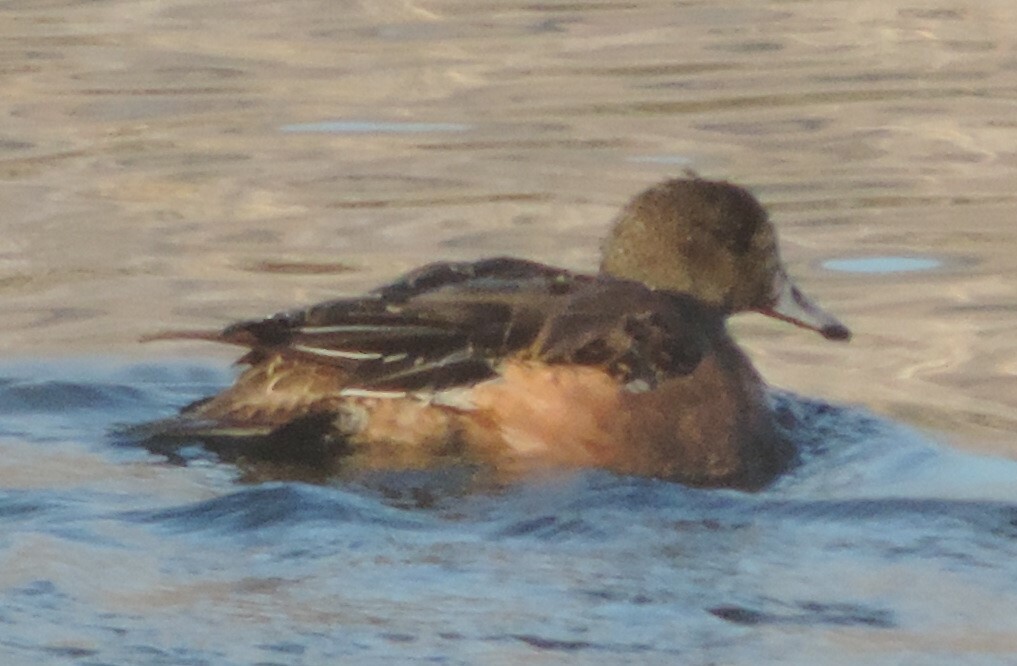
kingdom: Animalia
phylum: Chordata
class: Aves
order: Anseriformes
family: Anatidae
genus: Mareca
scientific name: Mareca americana
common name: American wigeon
